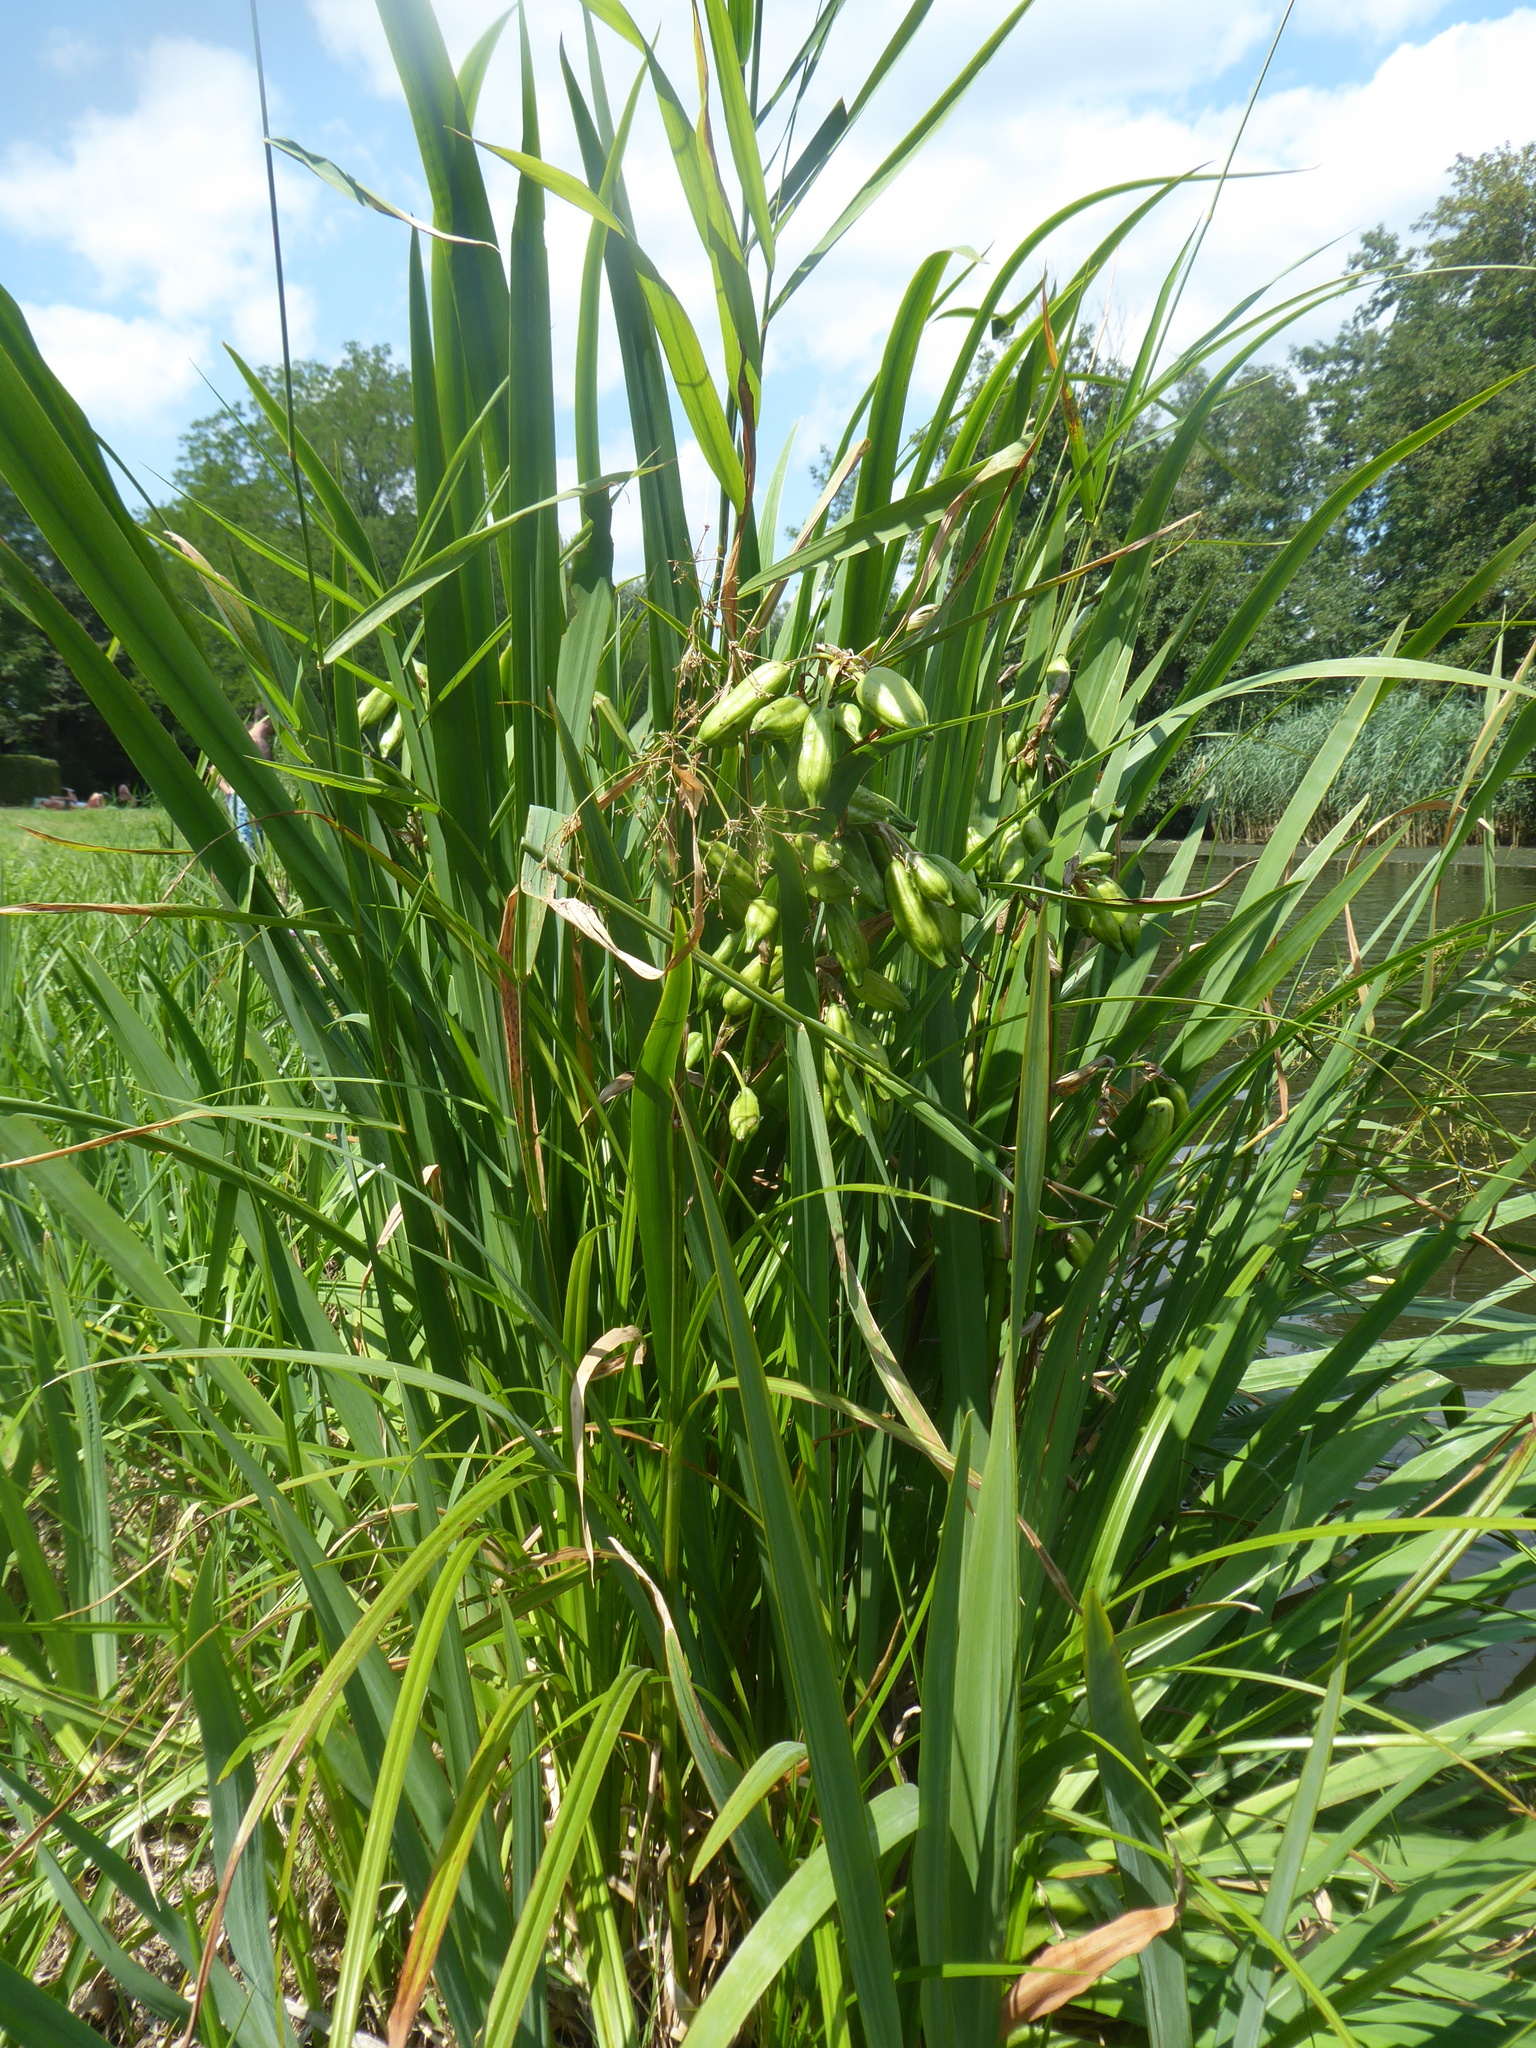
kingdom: Plantae
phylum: Tracheophyta
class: Liliopsida
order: Asparagales
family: Iridaceae
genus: Iris
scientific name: Iris pseudacorus
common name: Yellow flag
